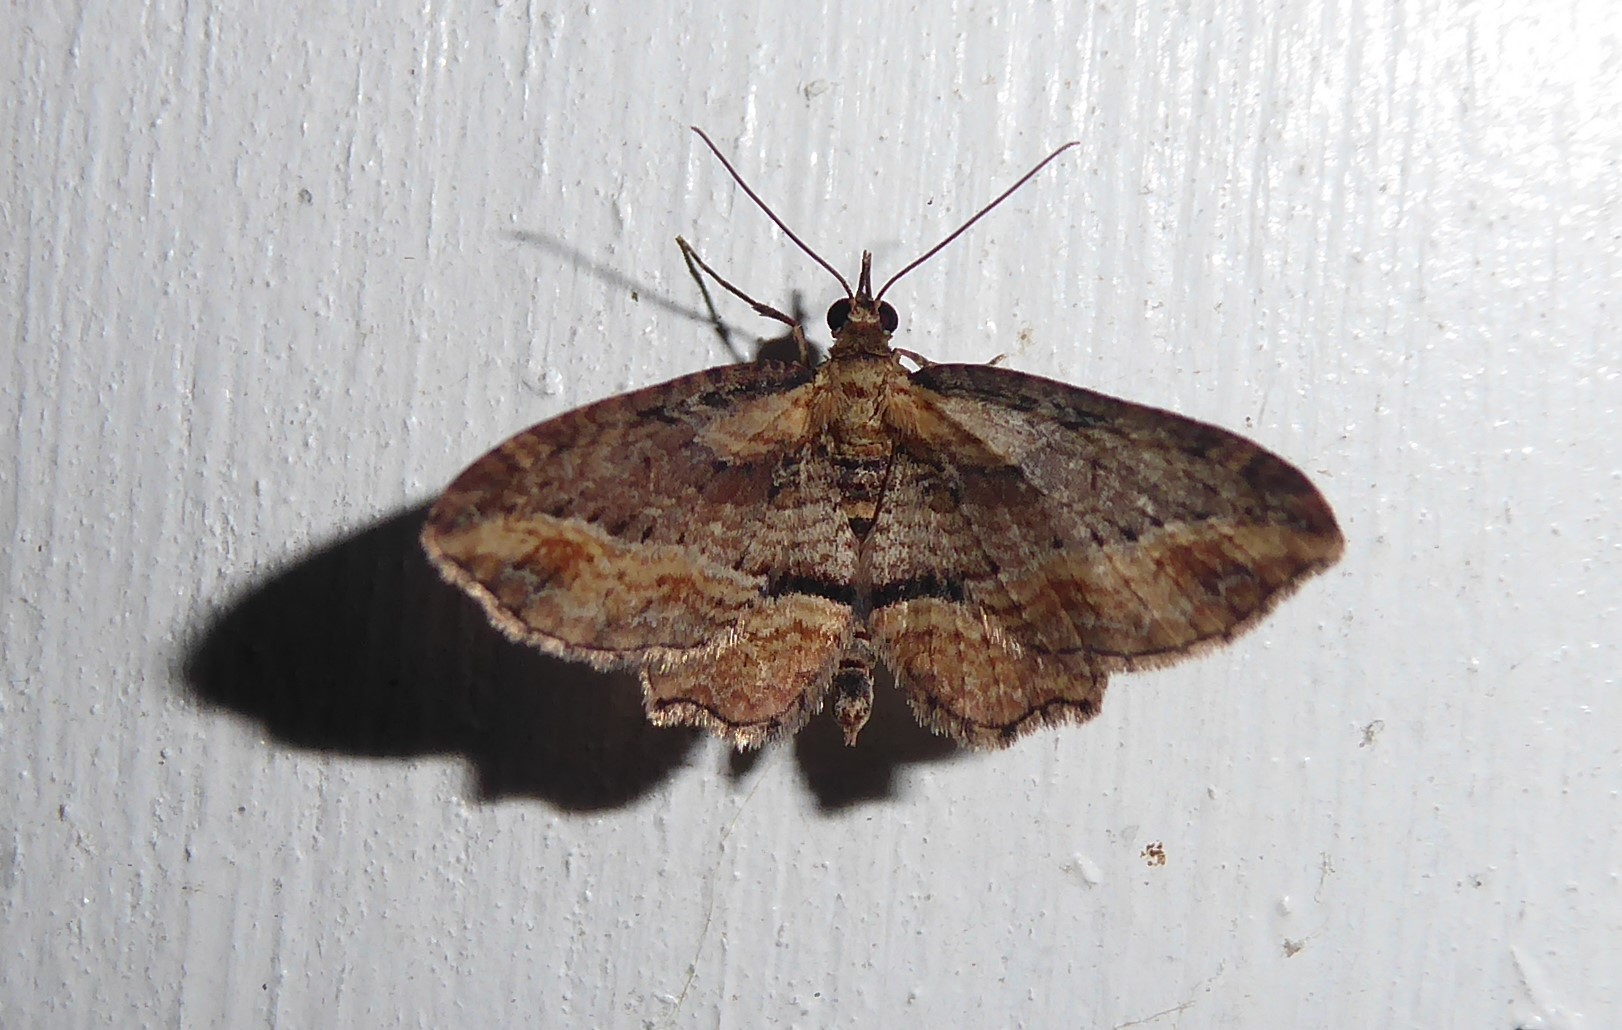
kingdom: Animalia
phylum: Arthropoda
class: Insecta
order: Lepidoptera
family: Geometridae
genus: Chloroclystis
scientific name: Chloroclystis filata
